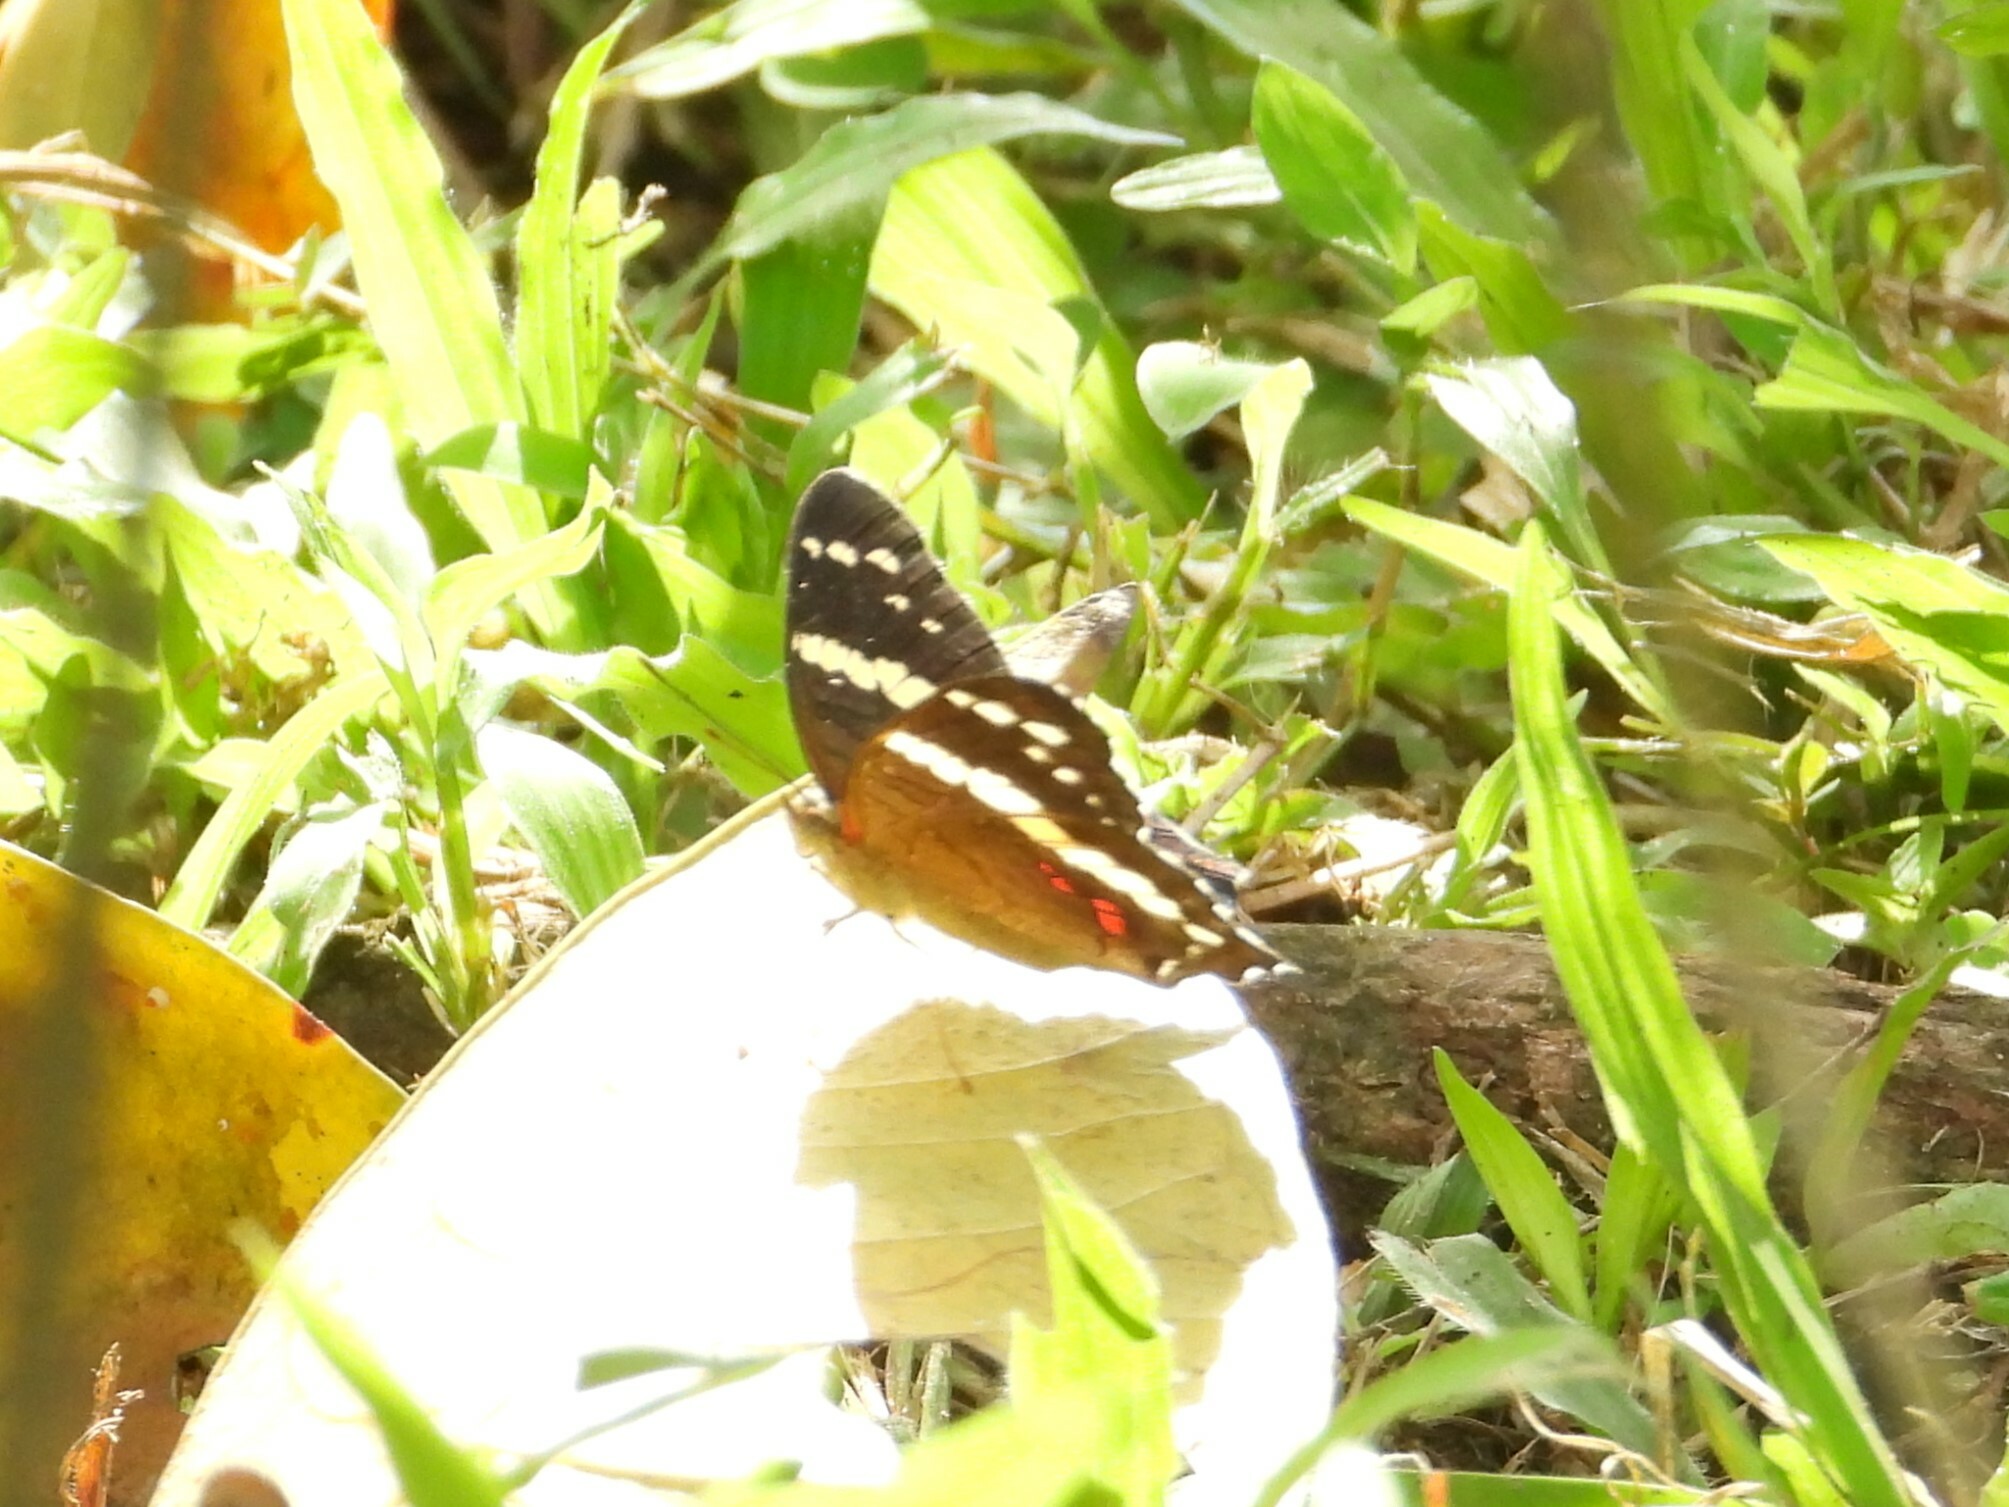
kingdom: Animalia
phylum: Arthropoda
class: Insecta
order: Lepidoptera
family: Nymphalidae
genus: Anartia
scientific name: Anartia fatima
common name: Banded peacock
